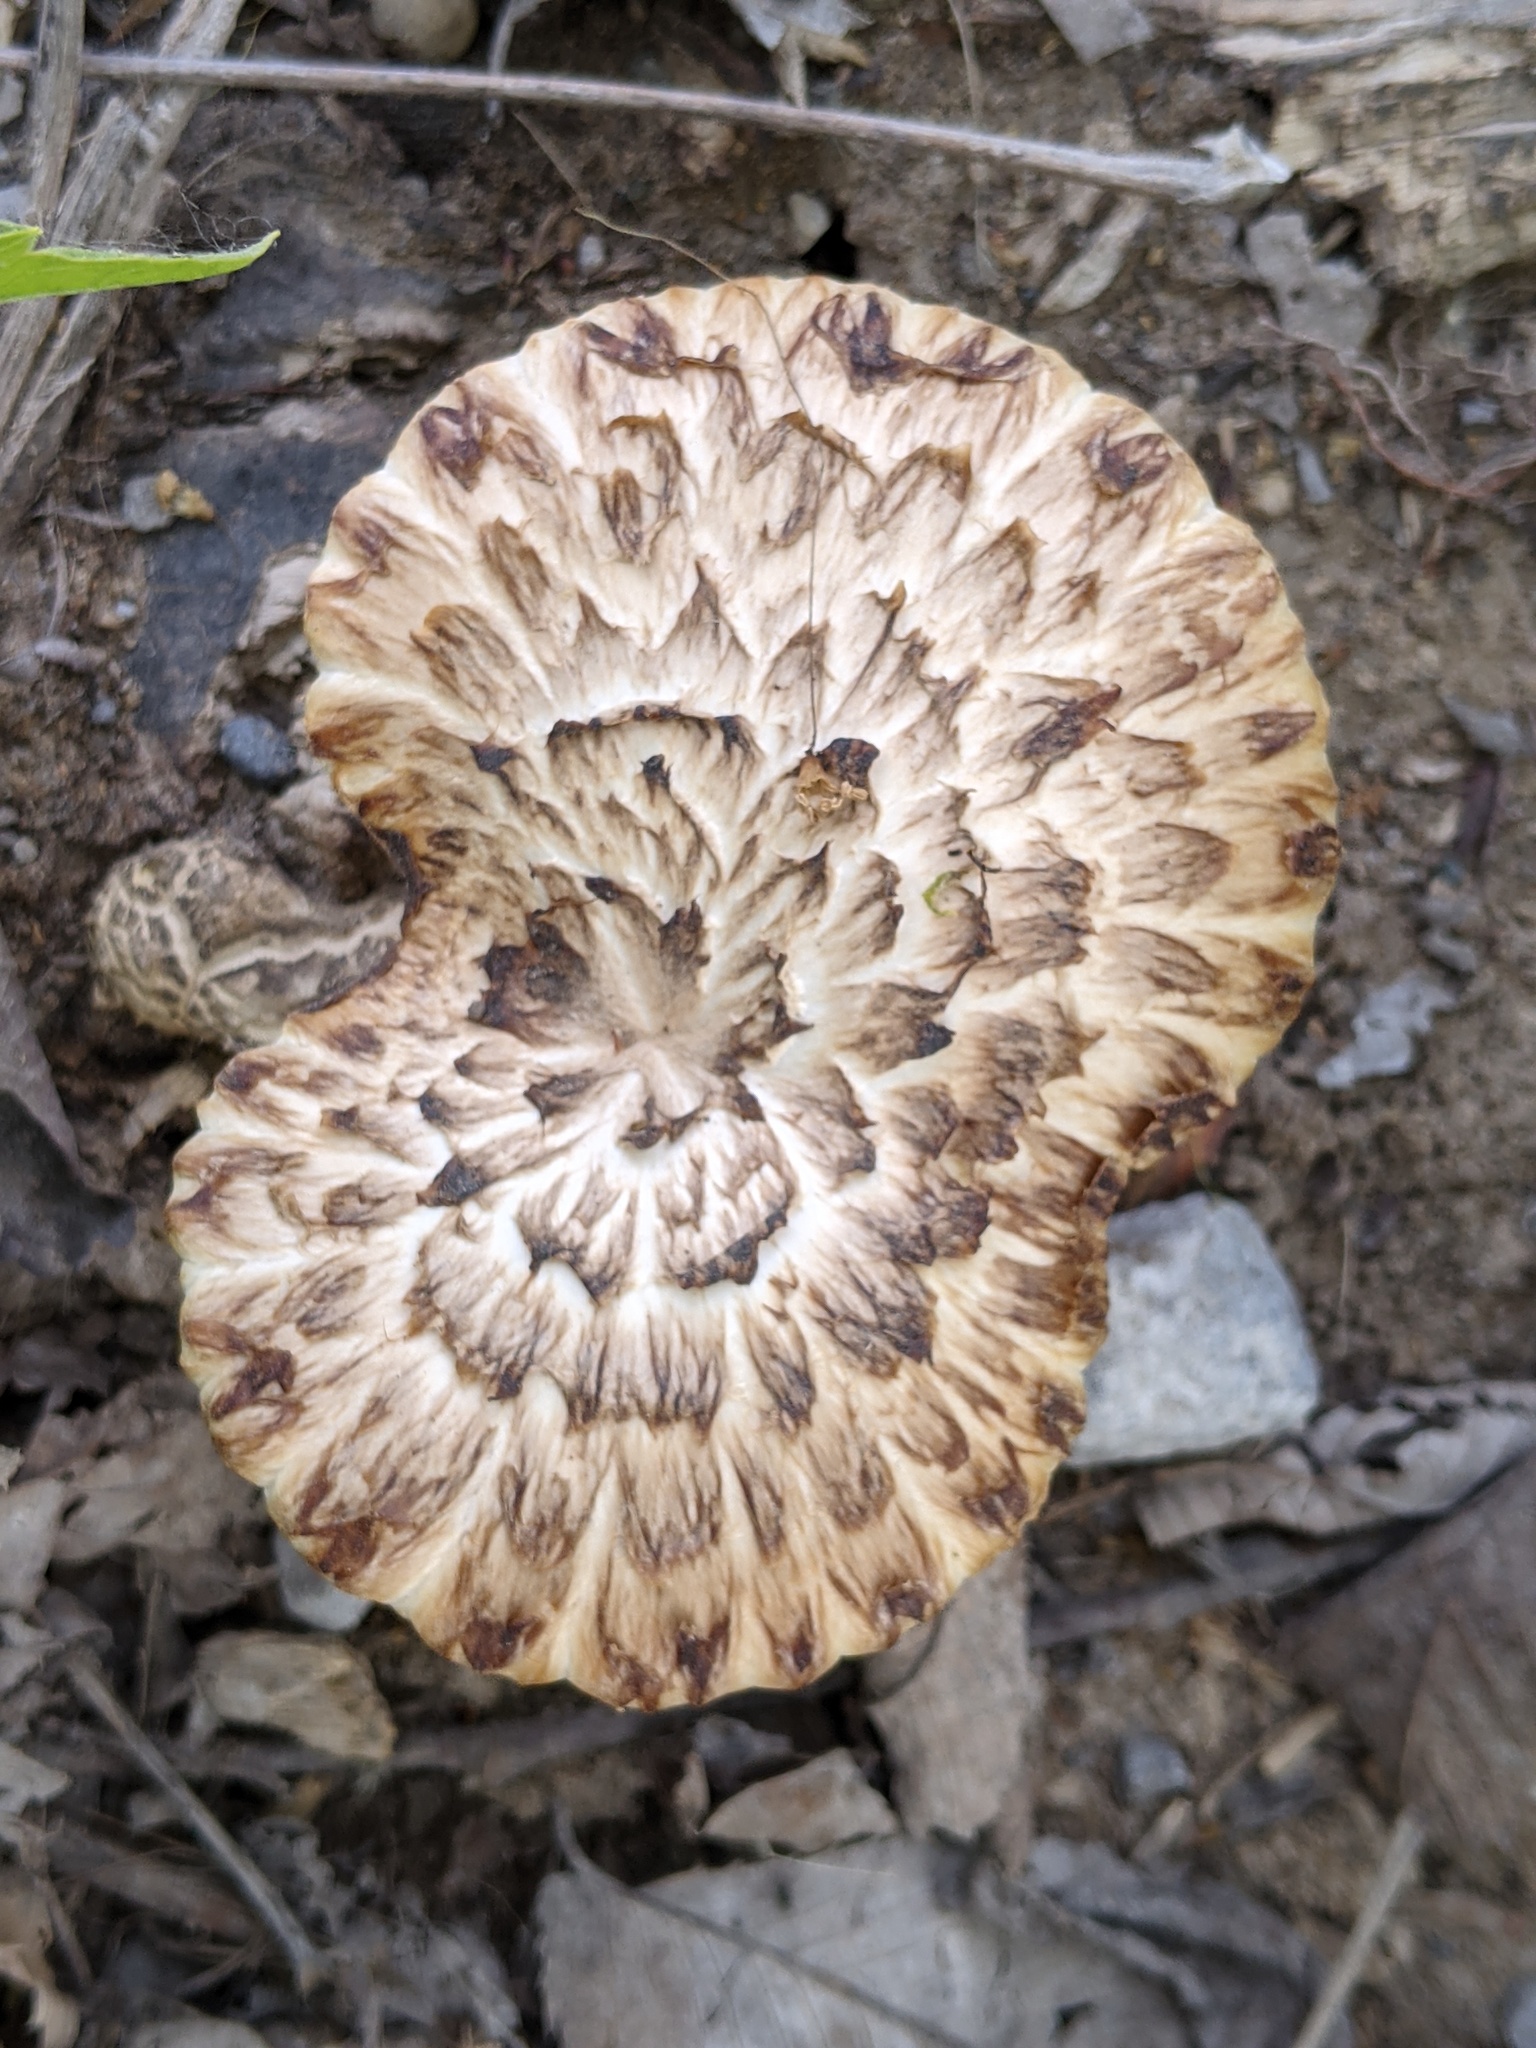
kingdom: Fungi
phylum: Basidiomycota
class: Agaricomycetes
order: Polyporales
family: Polyporaceae
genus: Cerioporus
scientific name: Cerioporus squamosus
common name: Dryad's saddle
